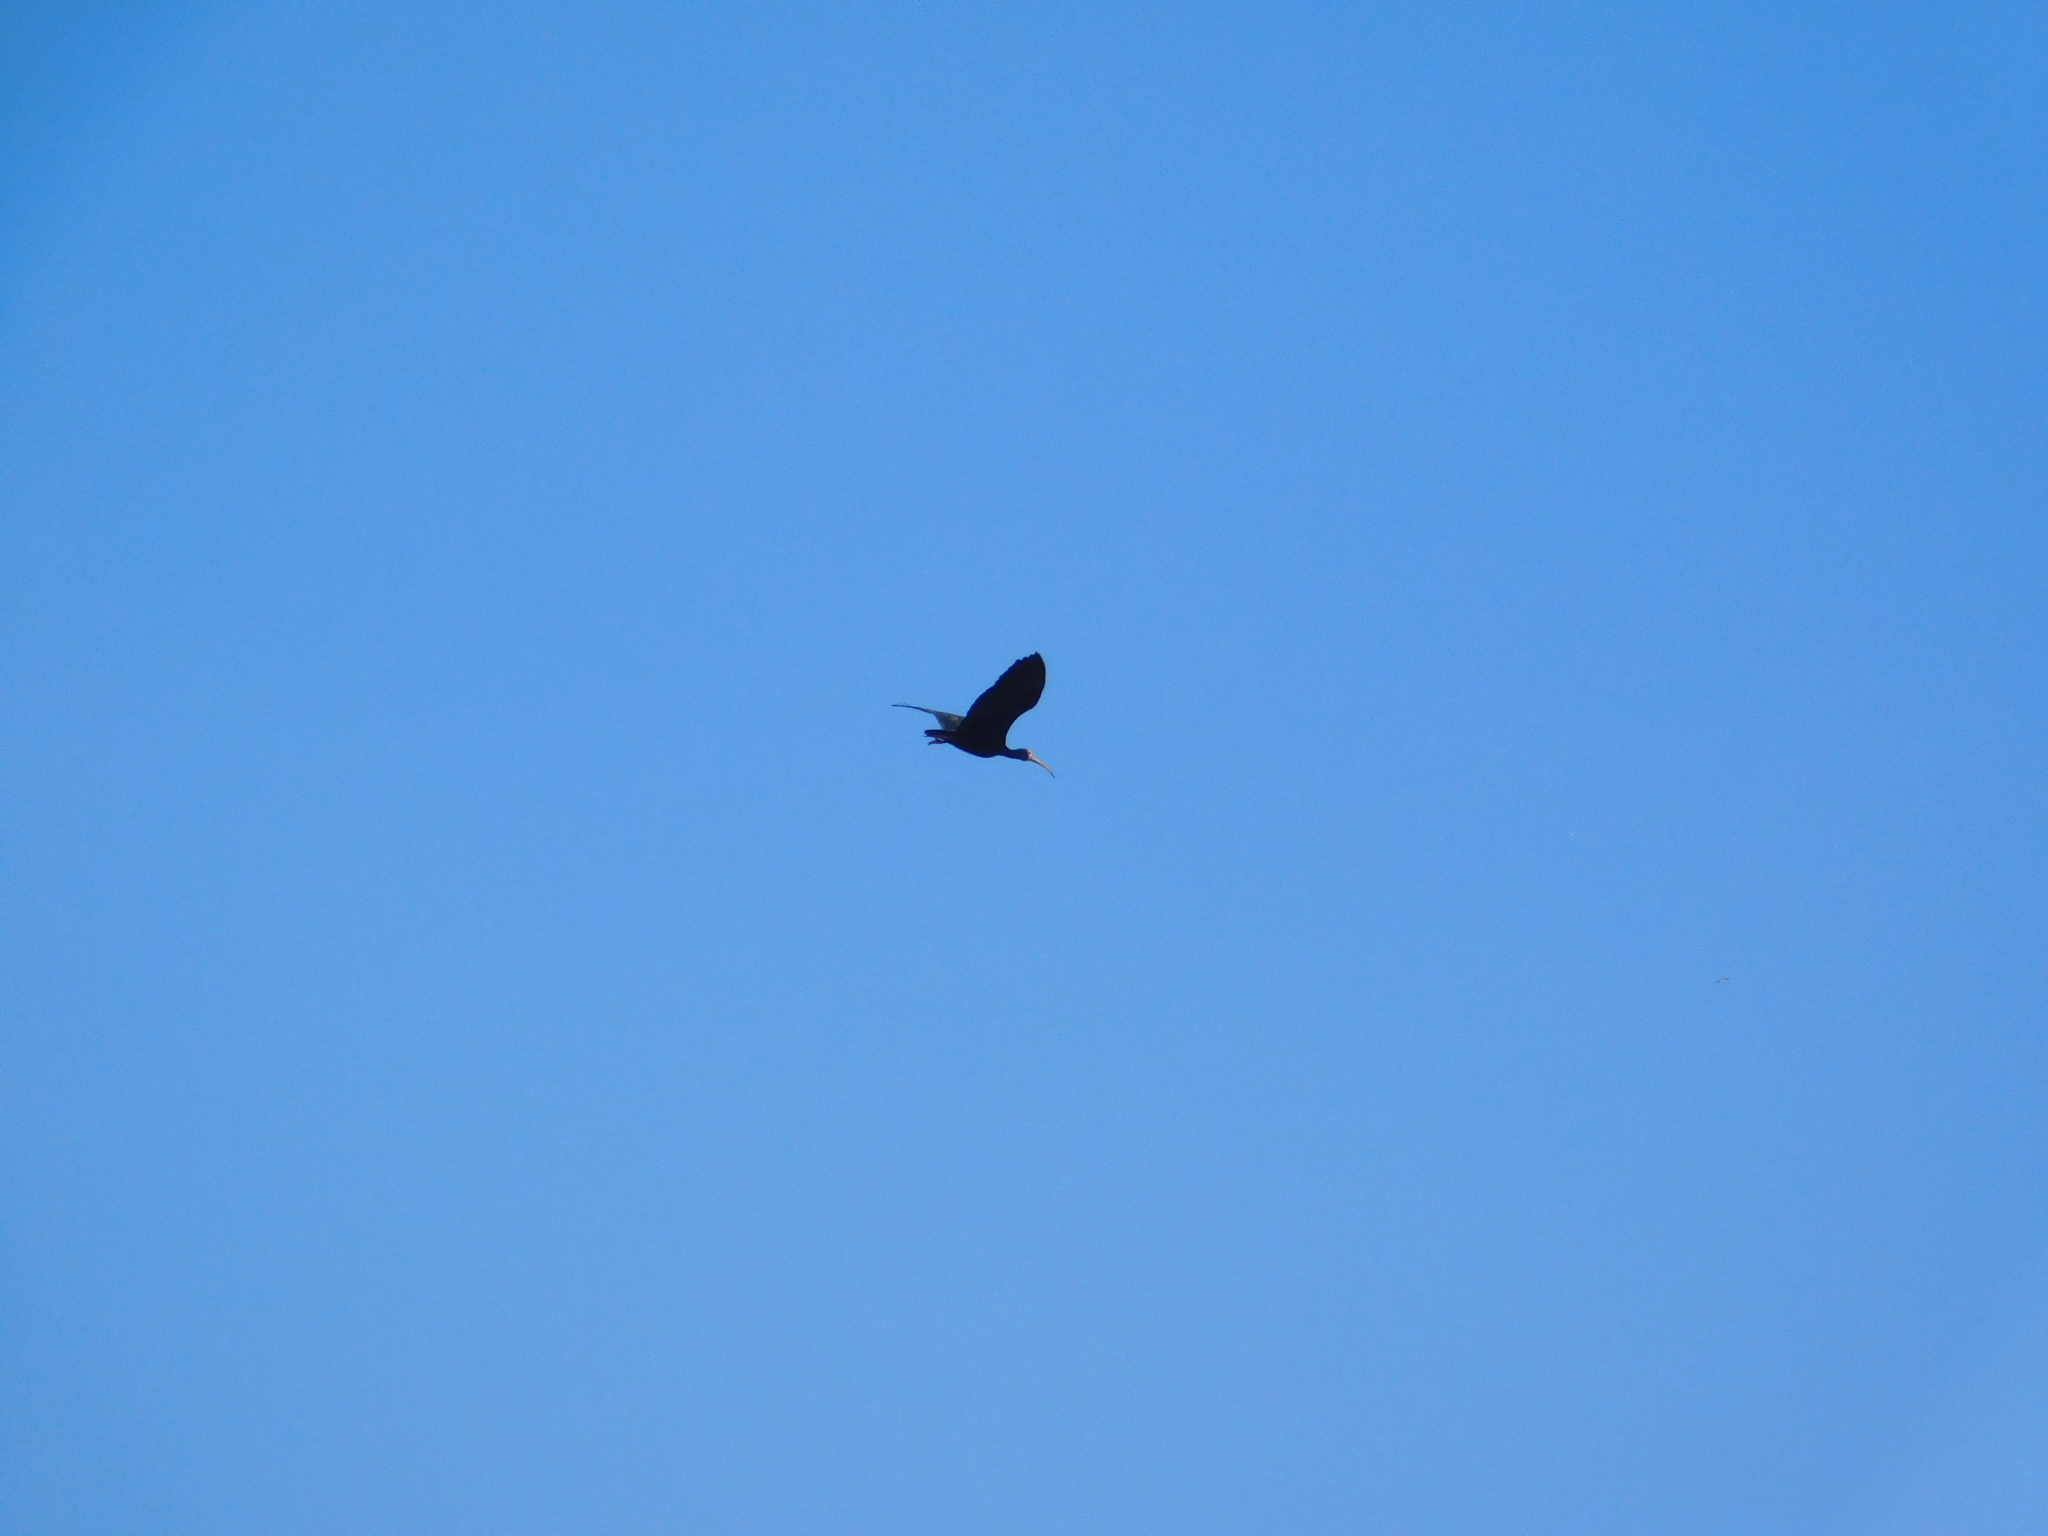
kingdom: Animalia
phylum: Chordata
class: Aves
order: Pelecaniformes
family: Threskiornithidae
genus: Phimosus
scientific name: Phimosus infuscatus
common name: Bare-faced ibis
